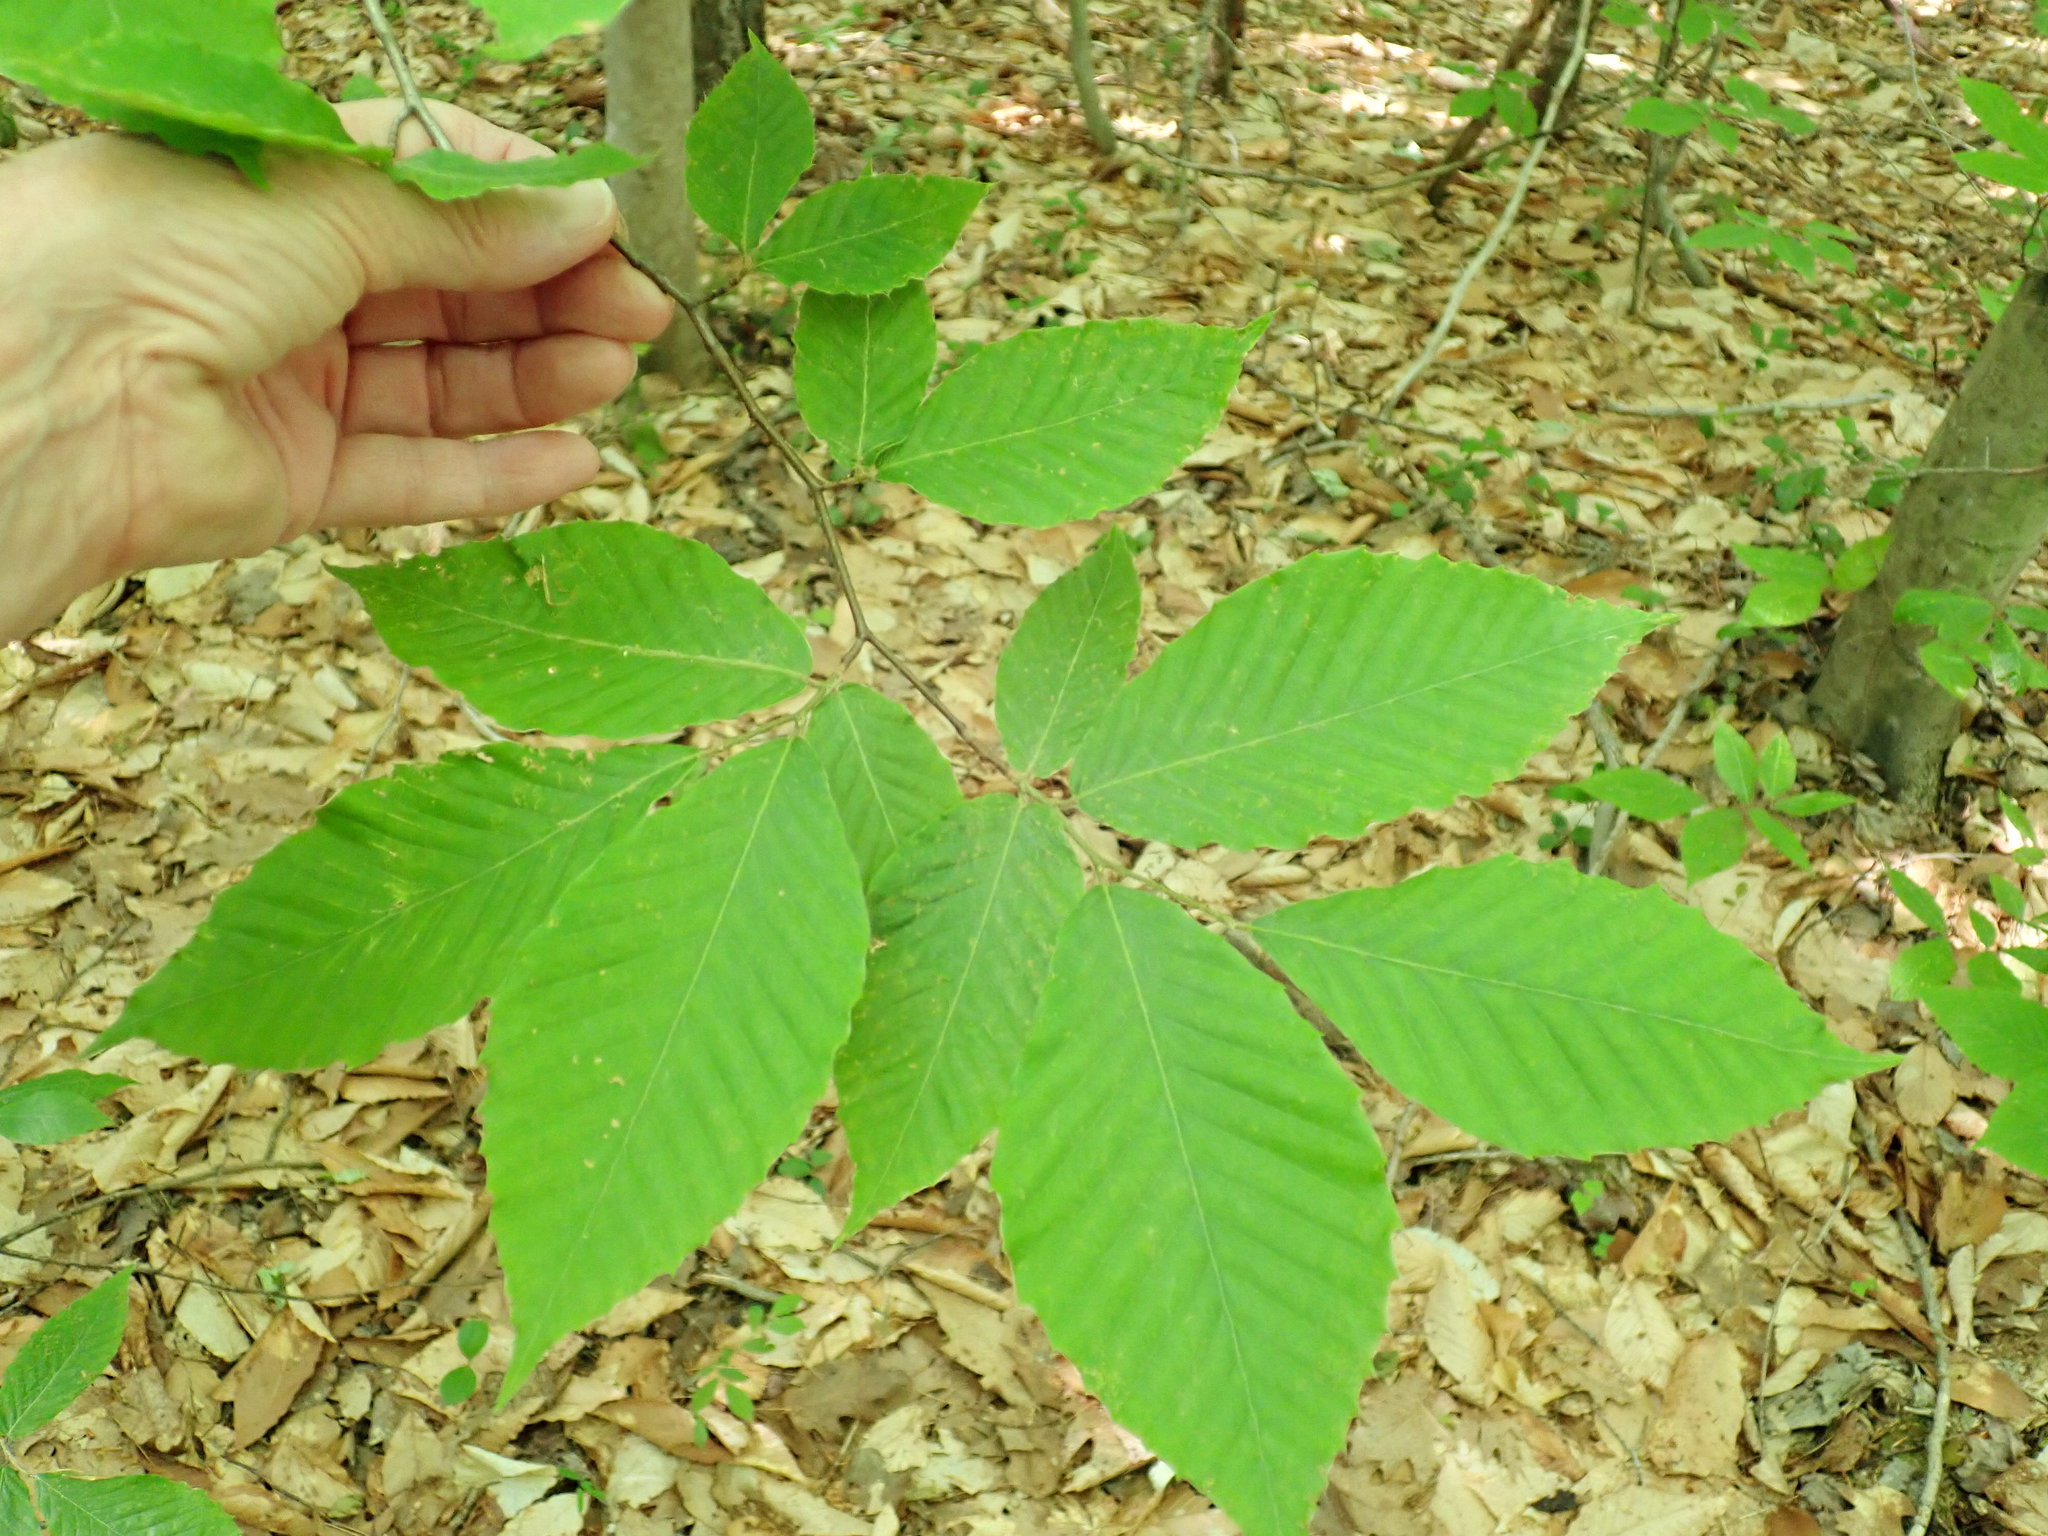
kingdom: Plantae
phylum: Tracheophyta
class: Magnoliopsida
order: Fagales
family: Fagaceae
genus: Fagus
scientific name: Fagus grandifolia
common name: American beech
